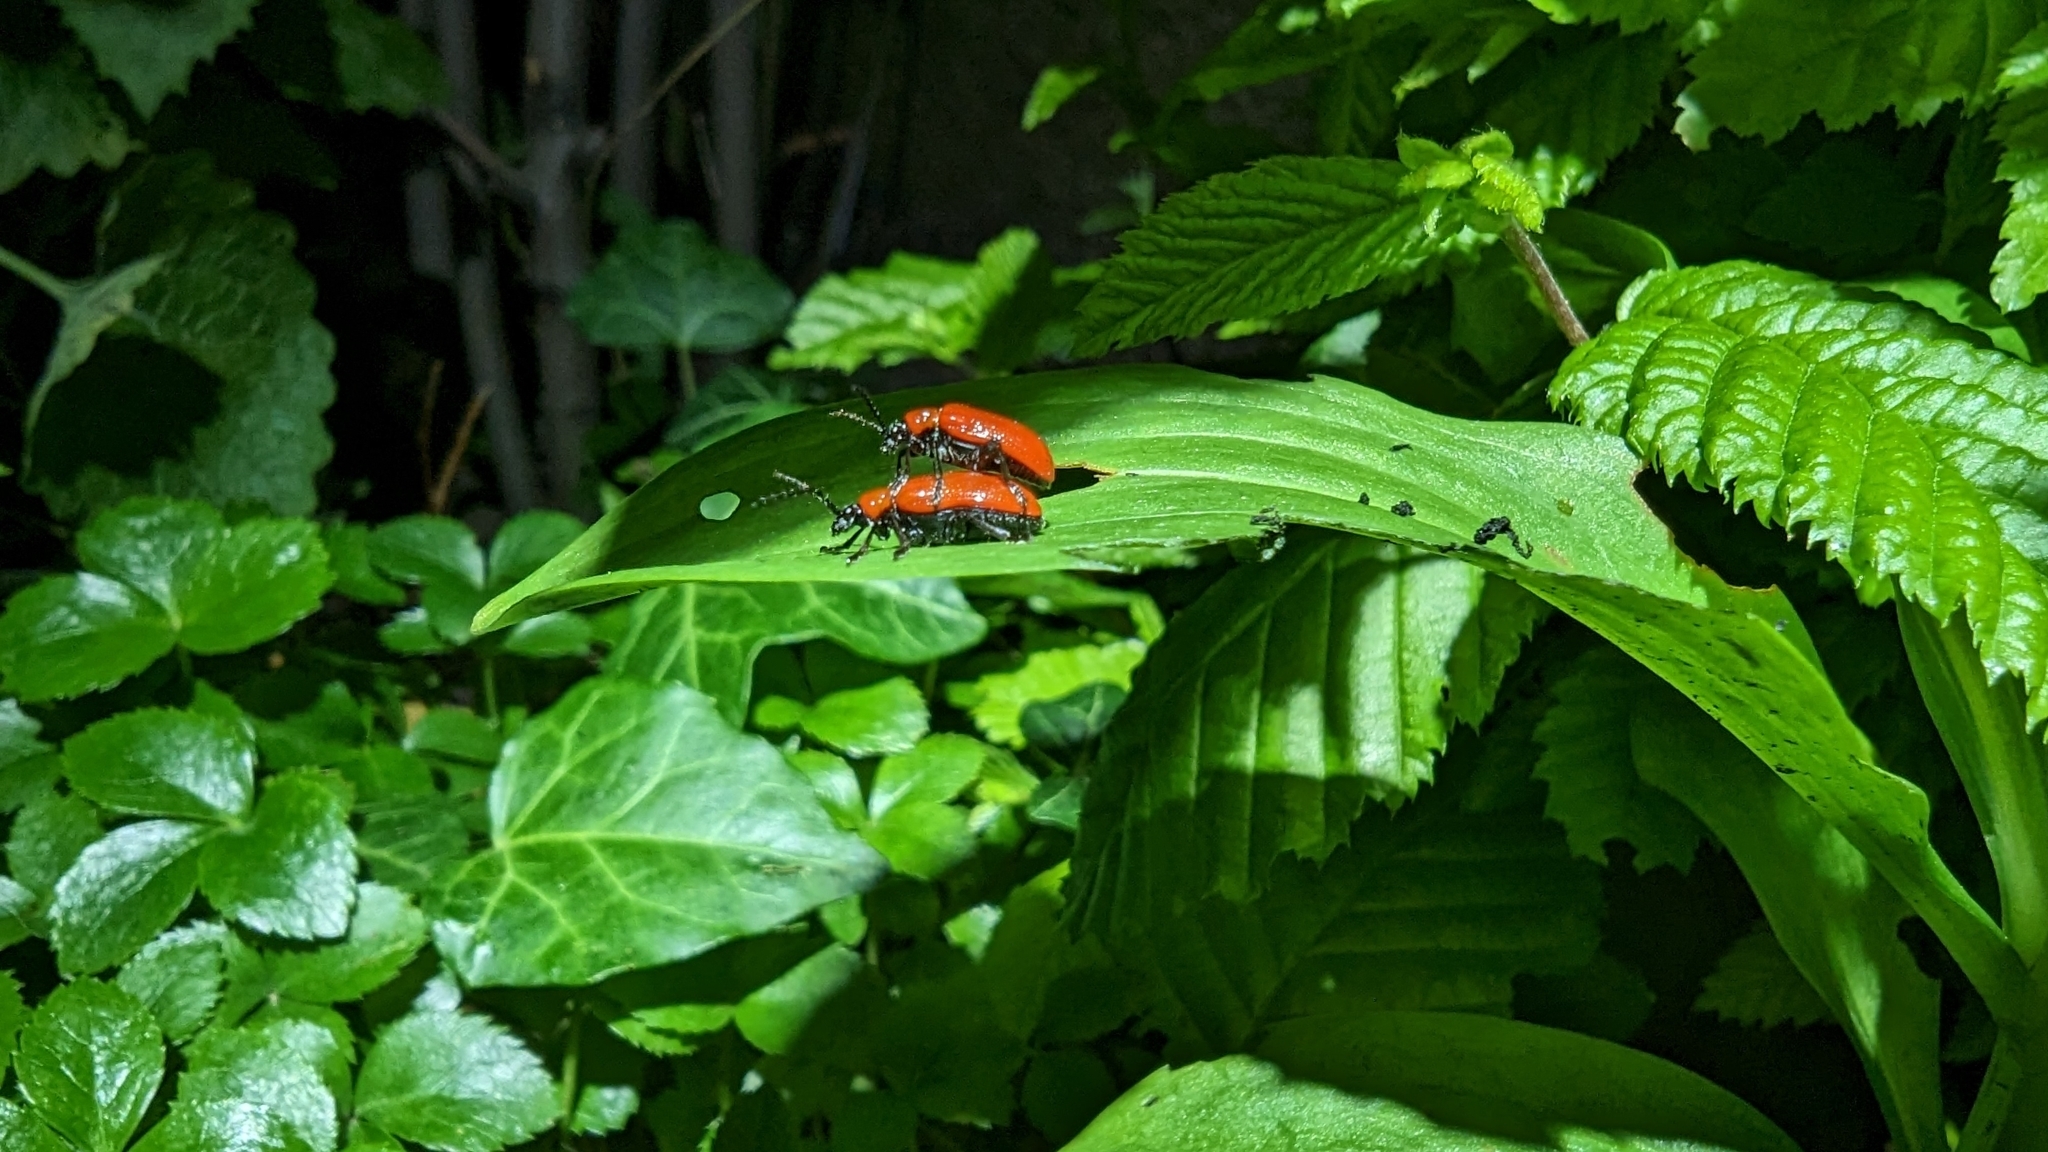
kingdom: Animalia
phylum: Arthropoda
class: Insecta
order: Coleoptera
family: Chrysomelidae
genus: Lilioceris
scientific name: Lilioceris lilii
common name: Lily beetle
